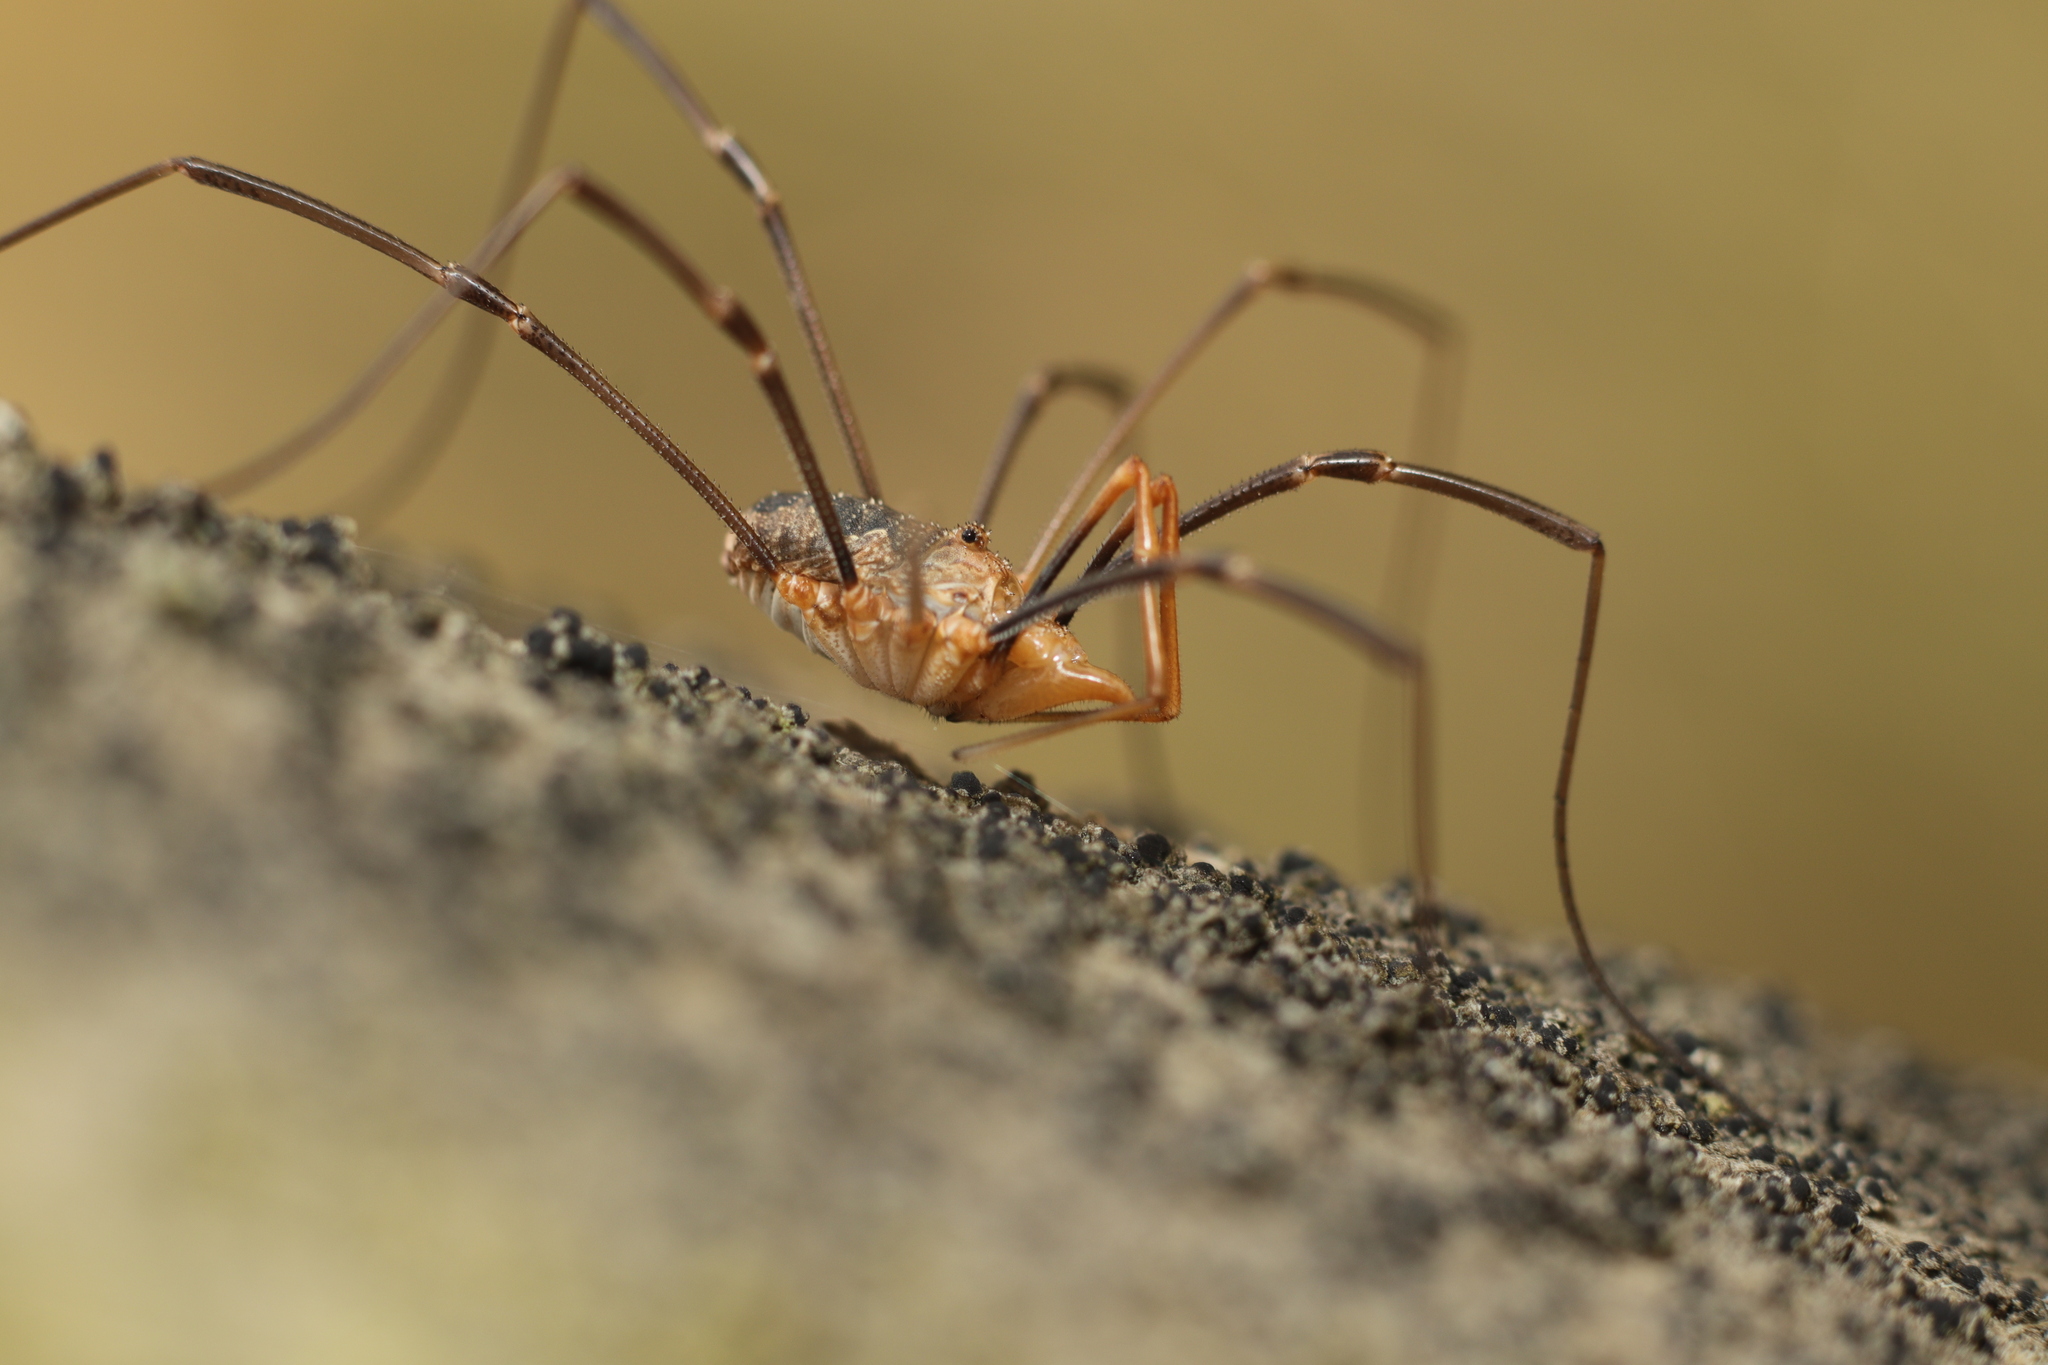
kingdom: Animalia
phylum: Arthropoda
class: Arachnida
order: Opiliones
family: Phalangiidae
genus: Phalangium
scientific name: Phalangium opilio
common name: Daddy longleg
